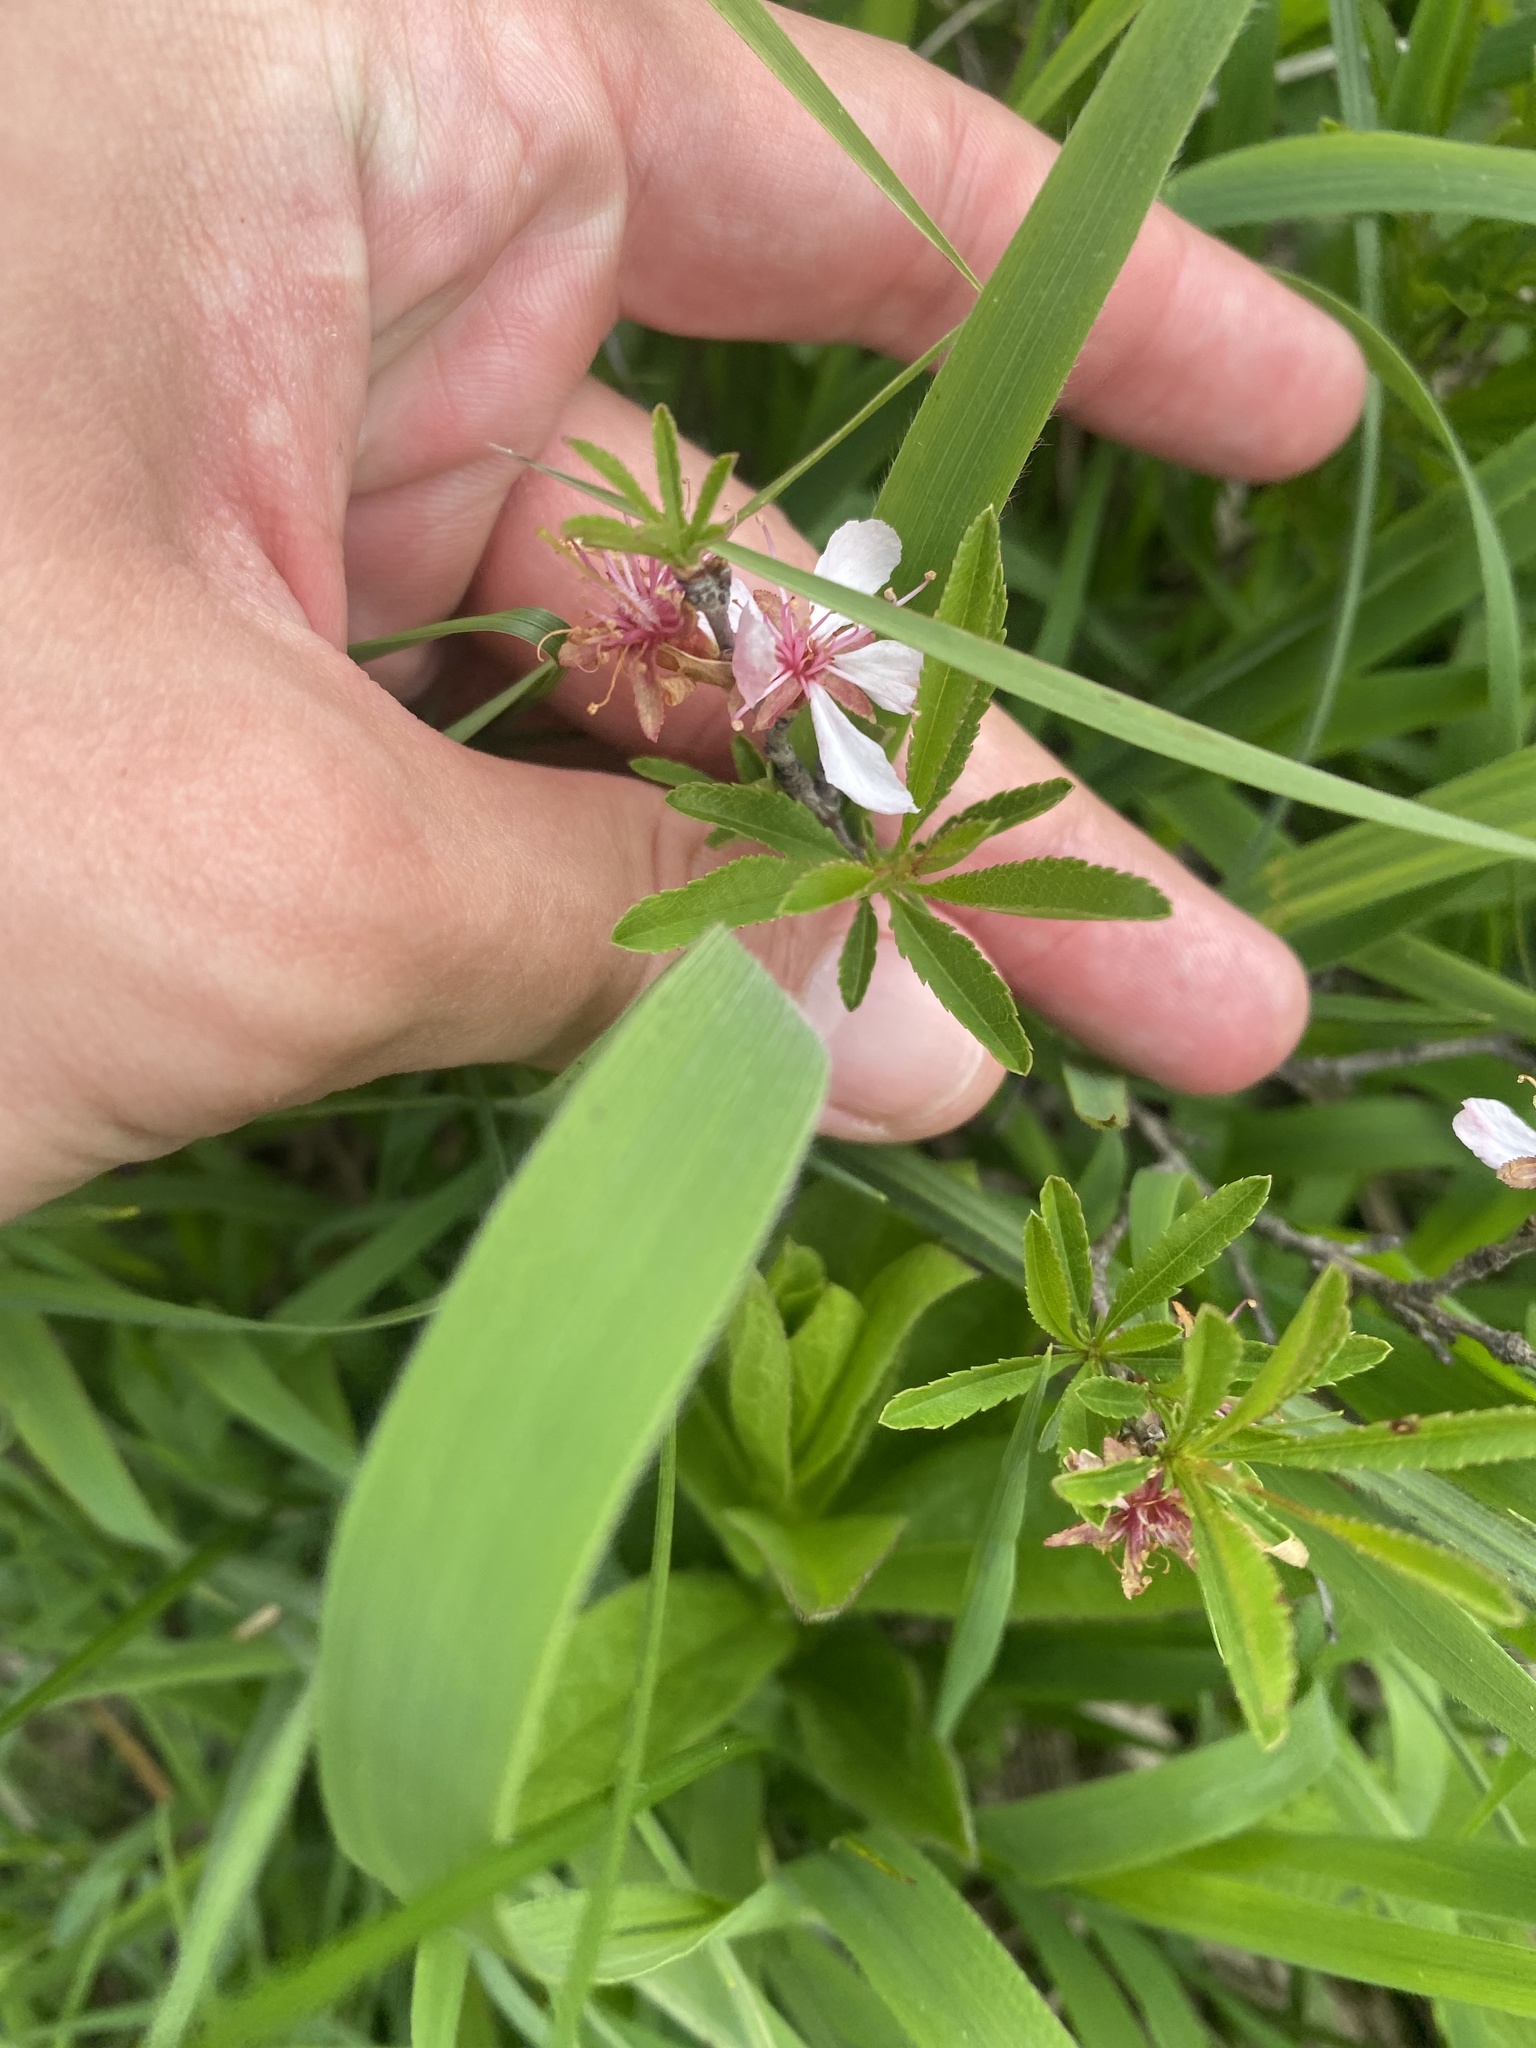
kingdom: Plantae
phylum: Tracheophyta
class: Magnoliopsida
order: Rosales
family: Rosaceae
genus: Prunus
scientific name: Prunus tenella
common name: Dwarf russian almond
